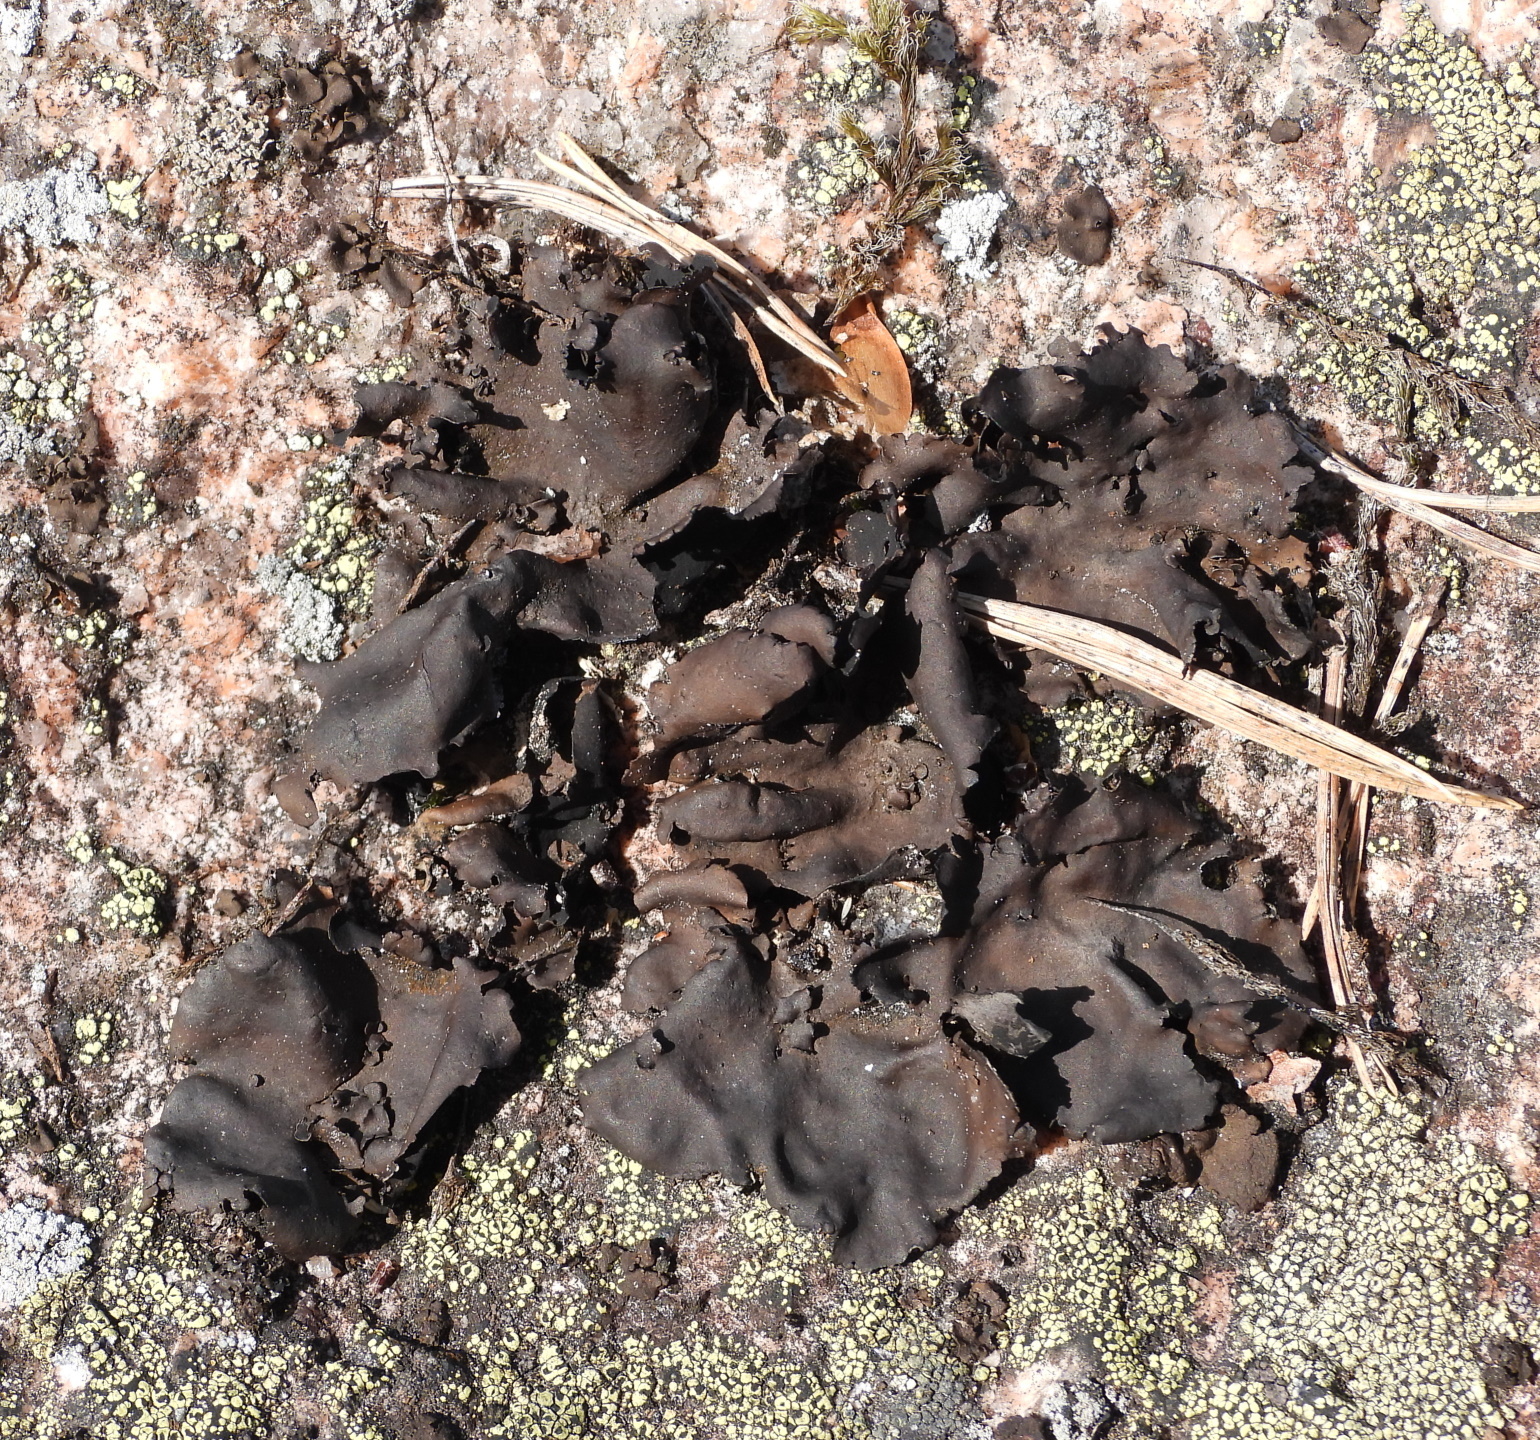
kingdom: Fungi
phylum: Ascomycota
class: Lecanoromycetes
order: Umbilicariales
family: Umbilicariaceae
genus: Umbilicaria
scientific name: Umbilicaria polyphylla
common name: Petalled rocktripe lichen
